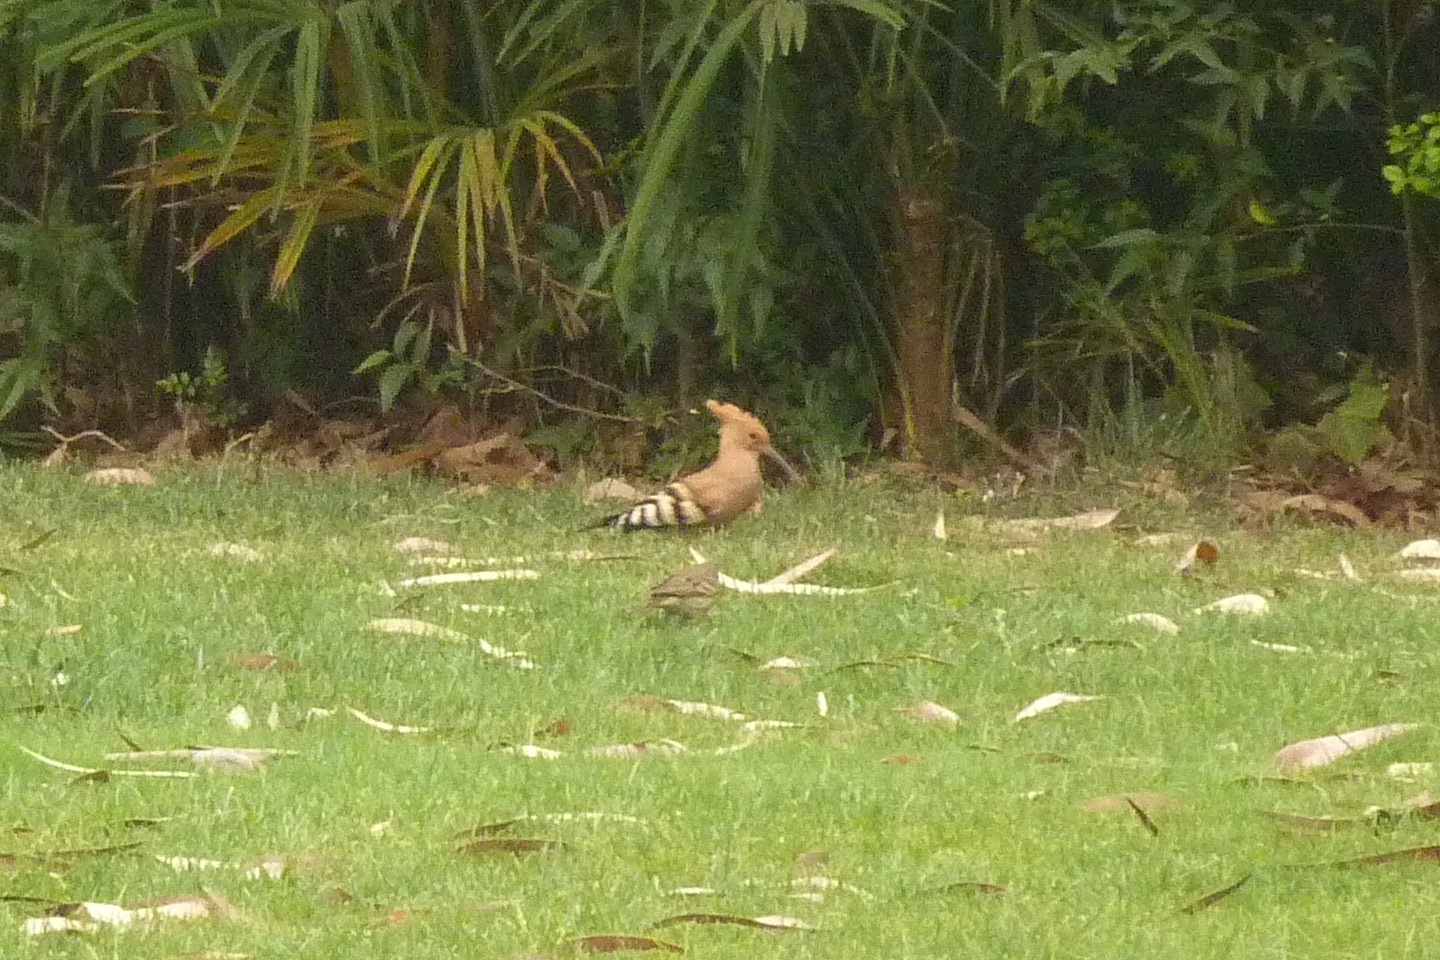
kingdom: Animalia
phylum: Chordata
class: Aves
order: Bucerotiformes
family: Upupidae
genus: Upupa
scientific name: Upupa epops
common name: Eurasian hoopoe
